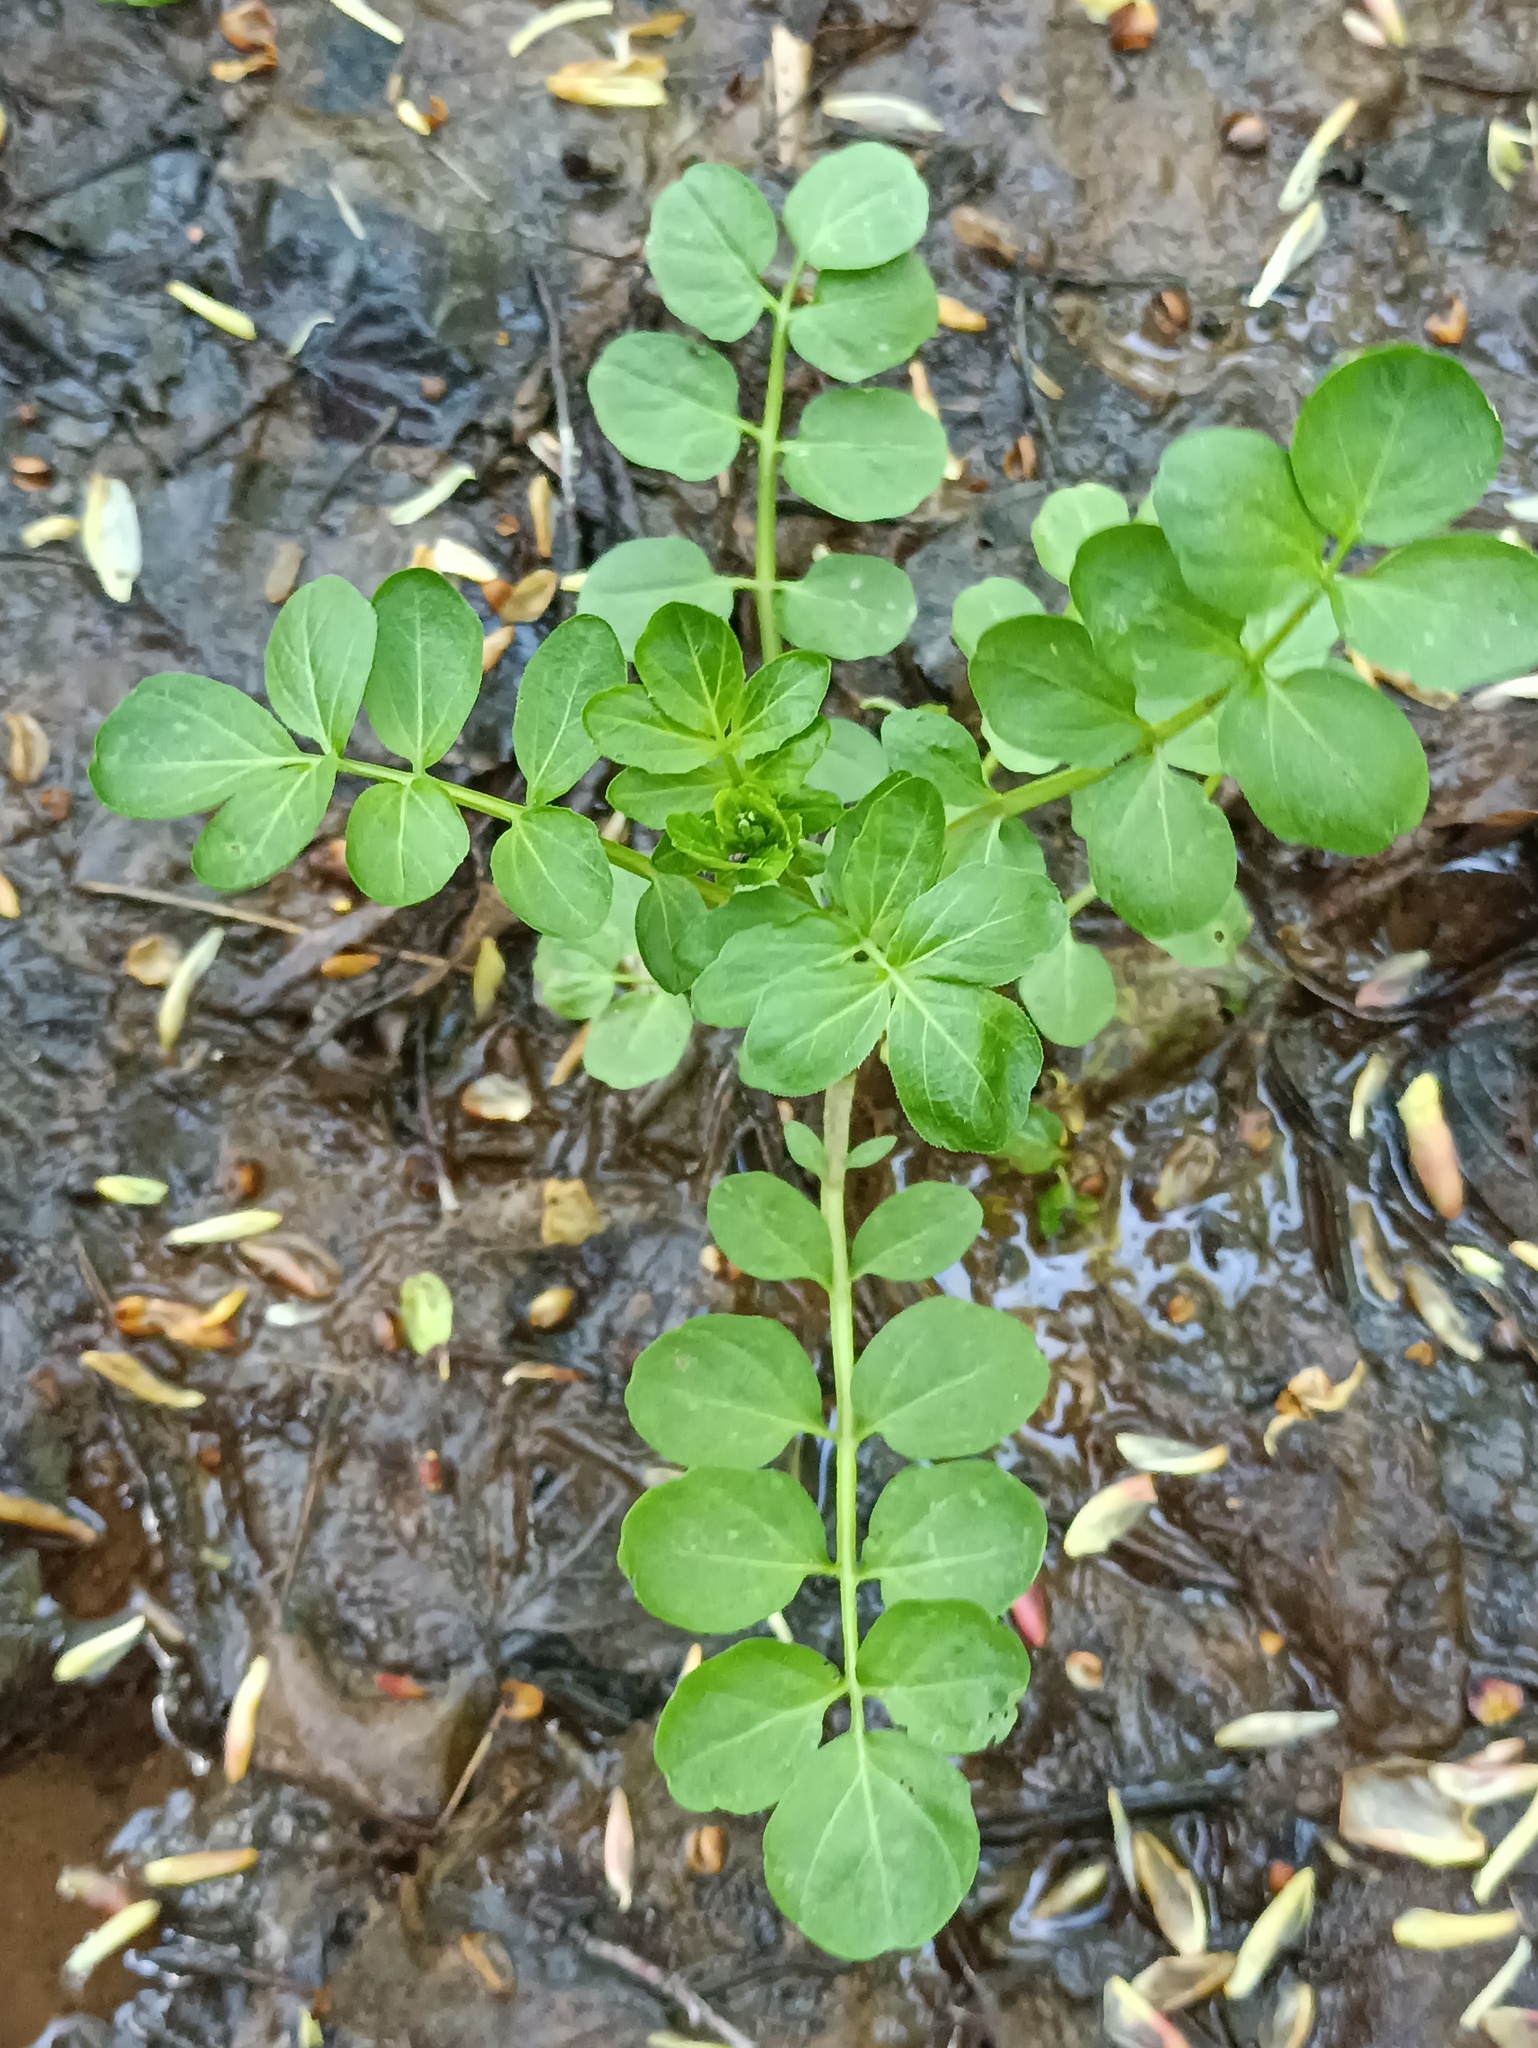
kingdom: Plantae
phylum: Tracheophyta
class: Magnoliopsida
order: Brassicales
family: Brassicaceae
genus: Cardamine
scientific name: Cardamine amara
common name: Large bitter-cress
